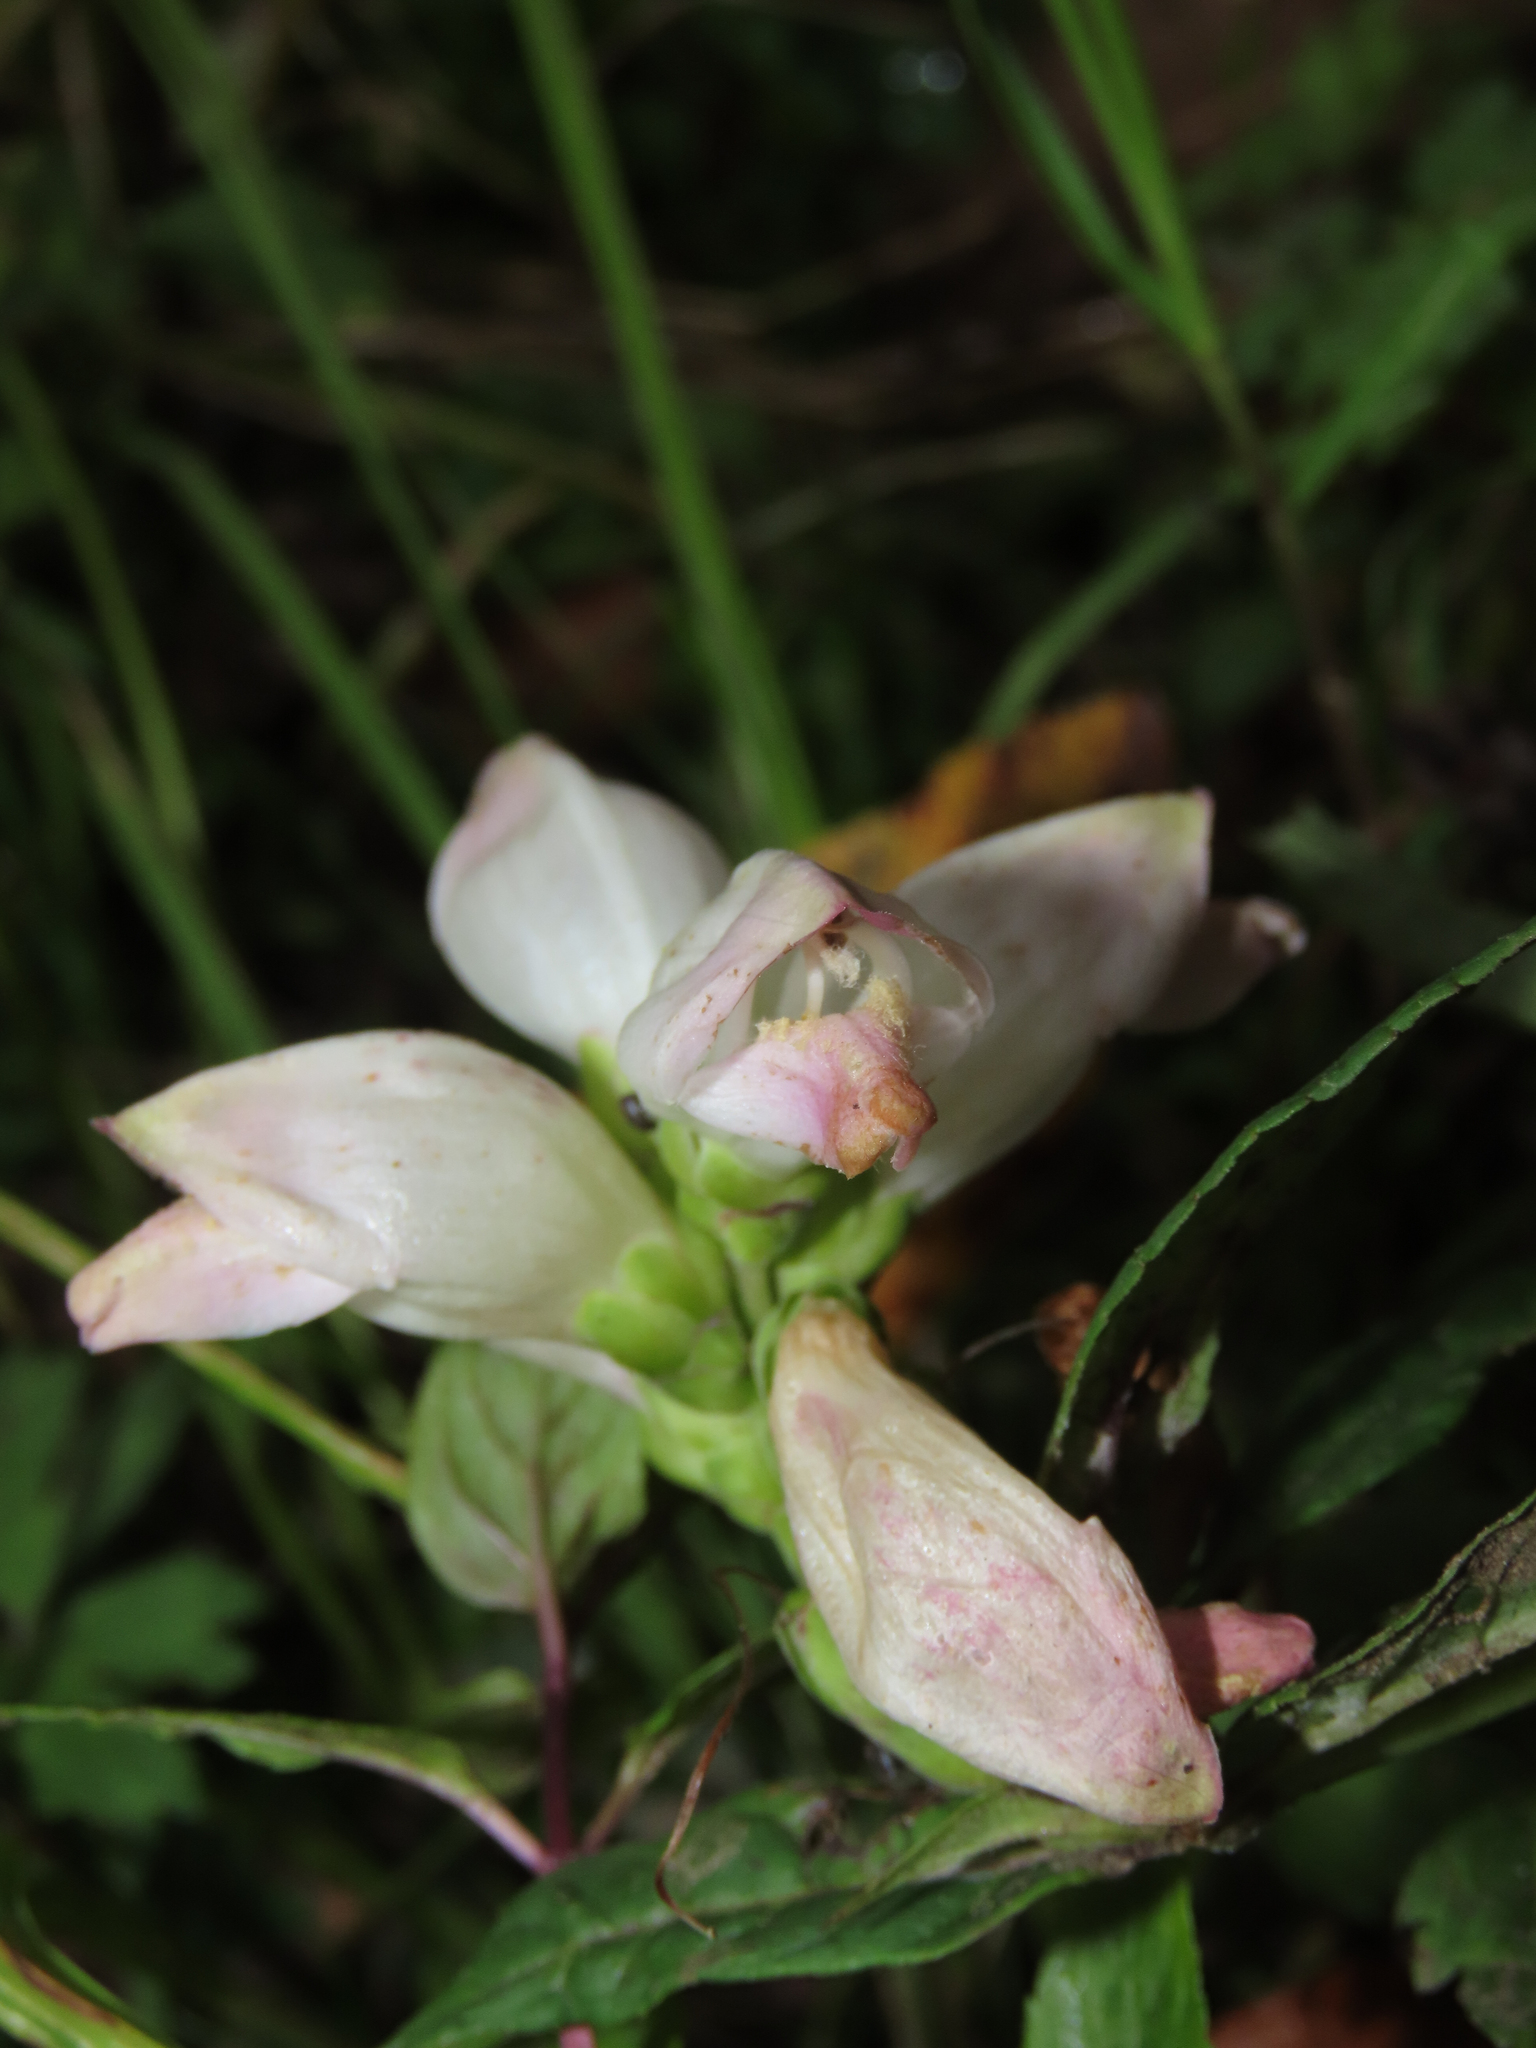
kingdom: Plantae
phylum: Tracheophyta
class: Magnoliopsida
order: Lamiales
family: Plantaginaceae
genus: Chelone
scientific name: Chelone glabra
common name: Snakehead
